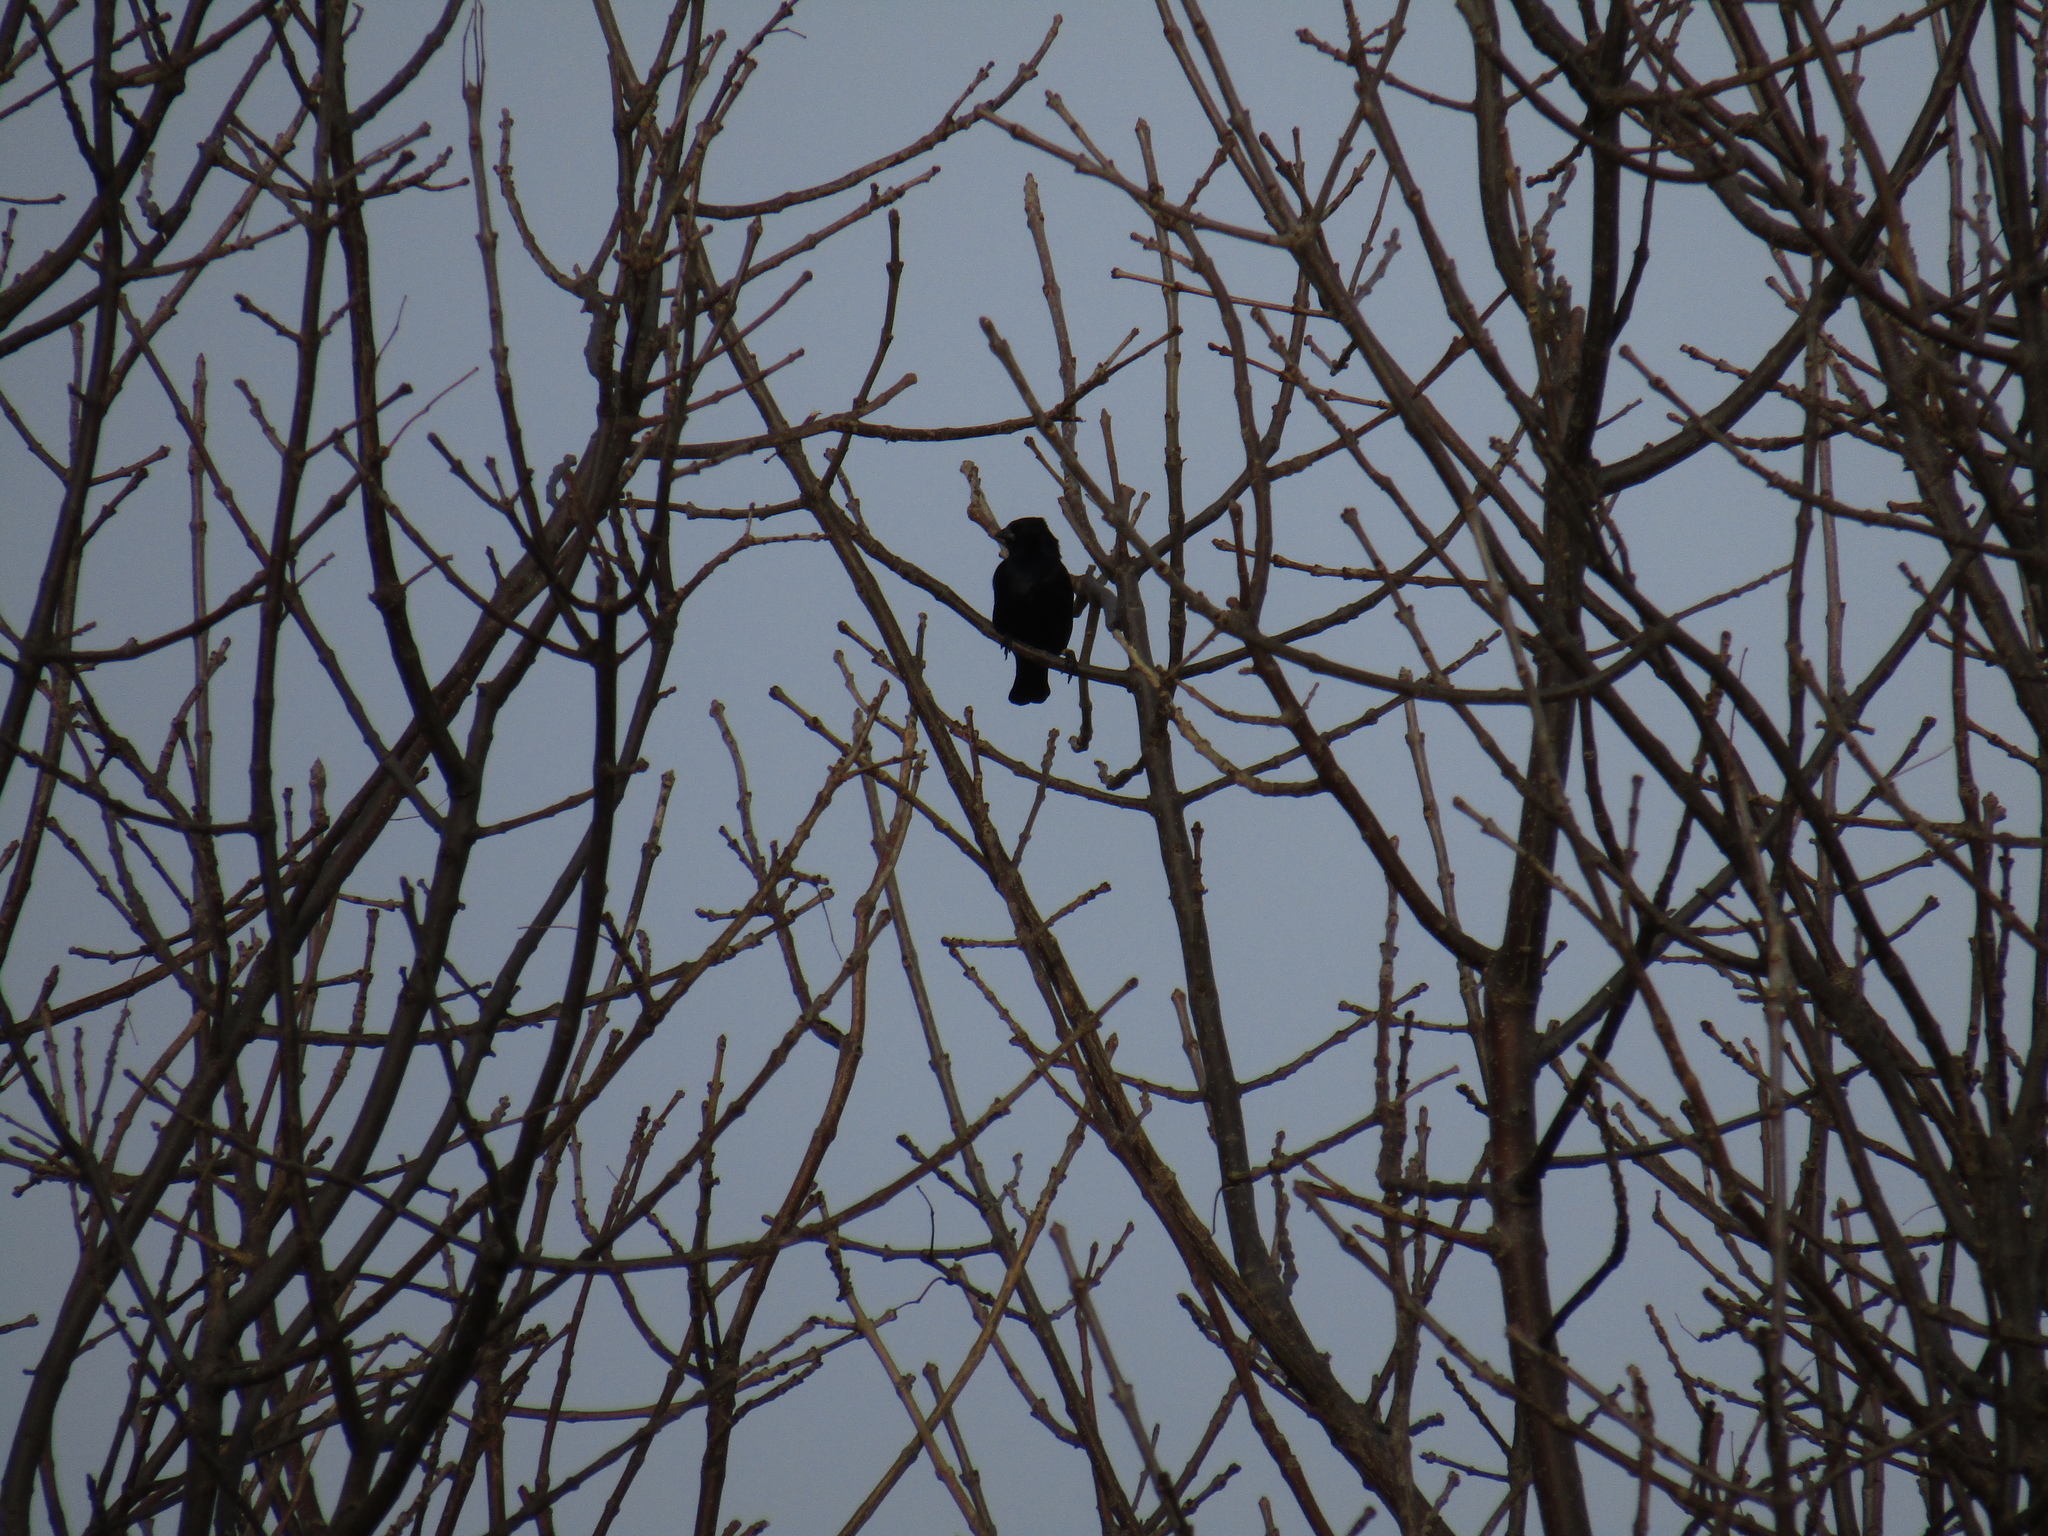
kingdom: Animalia
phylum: Chordata
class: Aves
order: Passeriformes
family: Icteridae
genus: Molothrus
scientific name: Molothrus bonariensis
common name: Shiny cowbird
